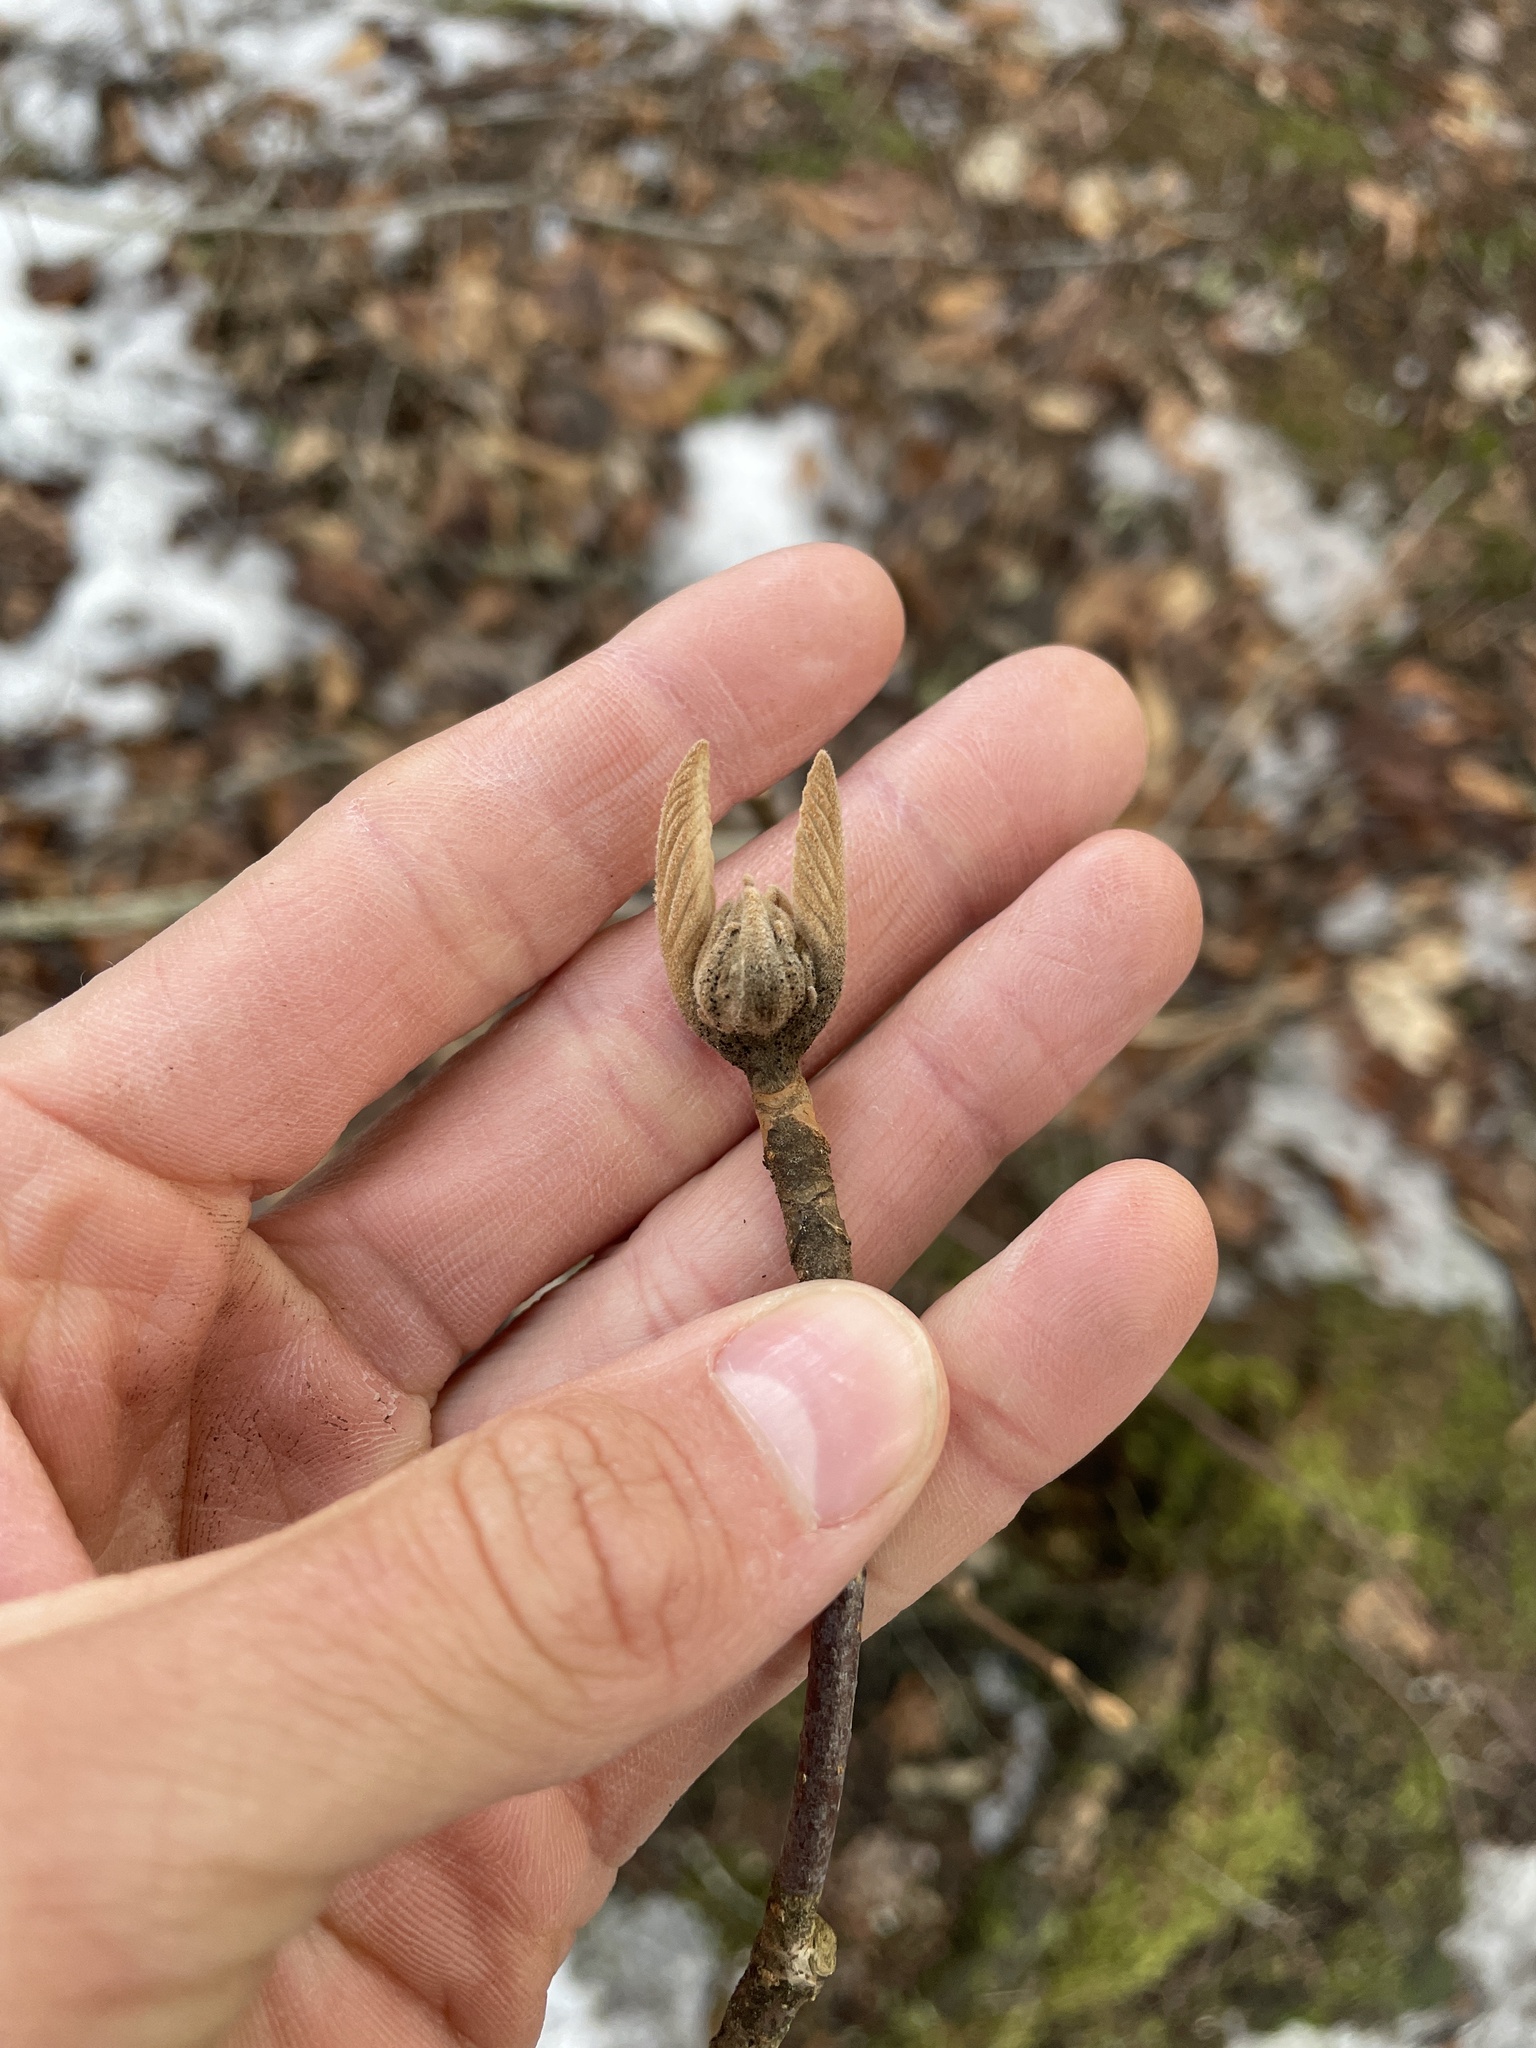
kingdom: Plantae
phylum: Tracheophyta
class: Magnoliopsida
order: Dipsacales
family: Viburnaceae
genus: Viburnum
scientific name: Viburnum lantanoides
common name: Hobblebush
